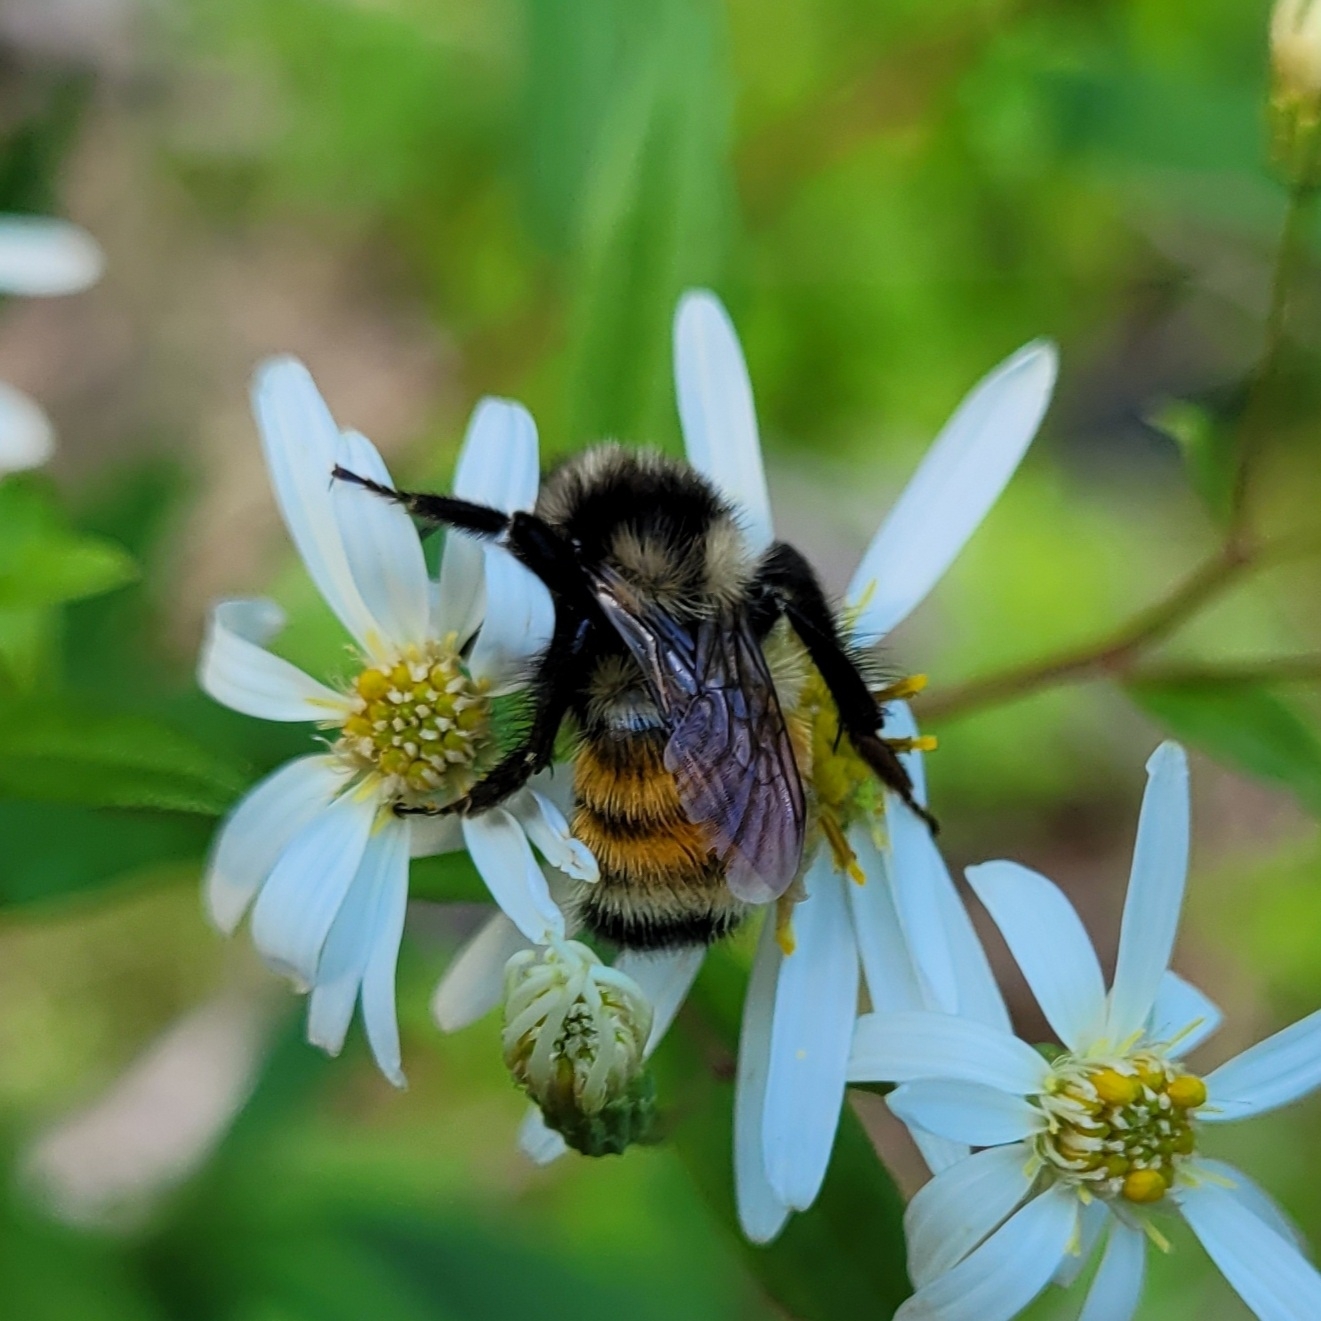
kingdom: Animalia
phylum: Arthropoda
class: Insecta
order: Hymenoptera
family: Apidae
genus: Bombus
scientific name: Bombus ternarius
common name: Tri-colored bumble bee
